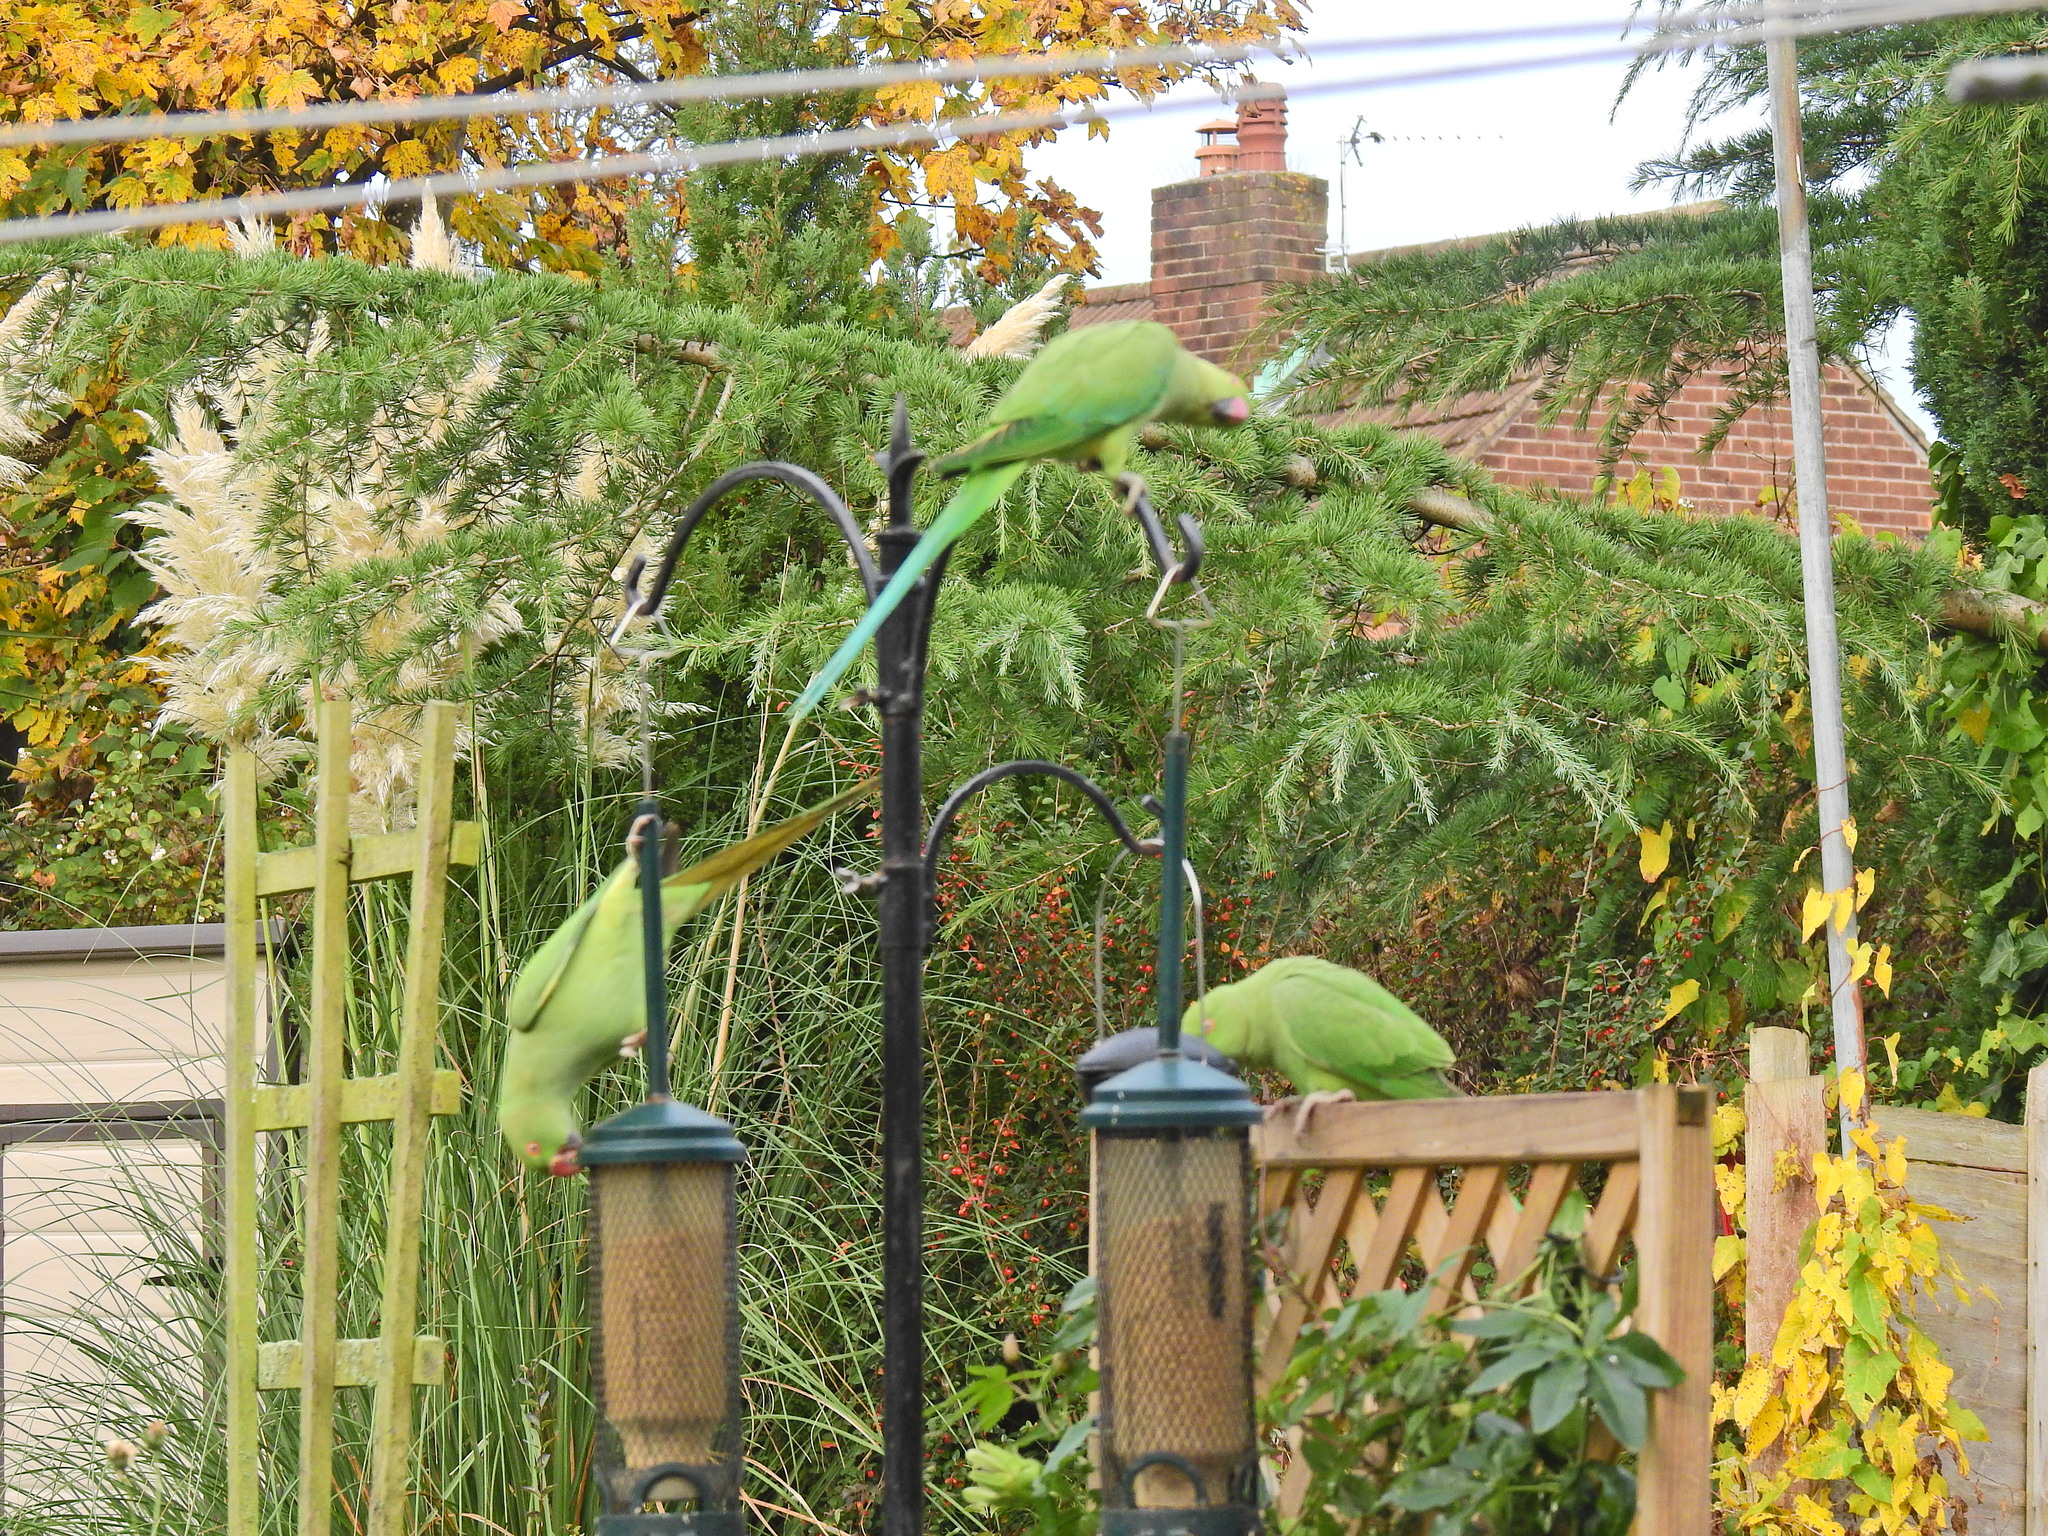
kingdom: Animalia
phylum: Chordata
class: Aves
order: Psittaciformes
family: Psittacidae
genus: Psittacula
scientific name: Psittacula krameri
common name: Rose-ringed parakeet
